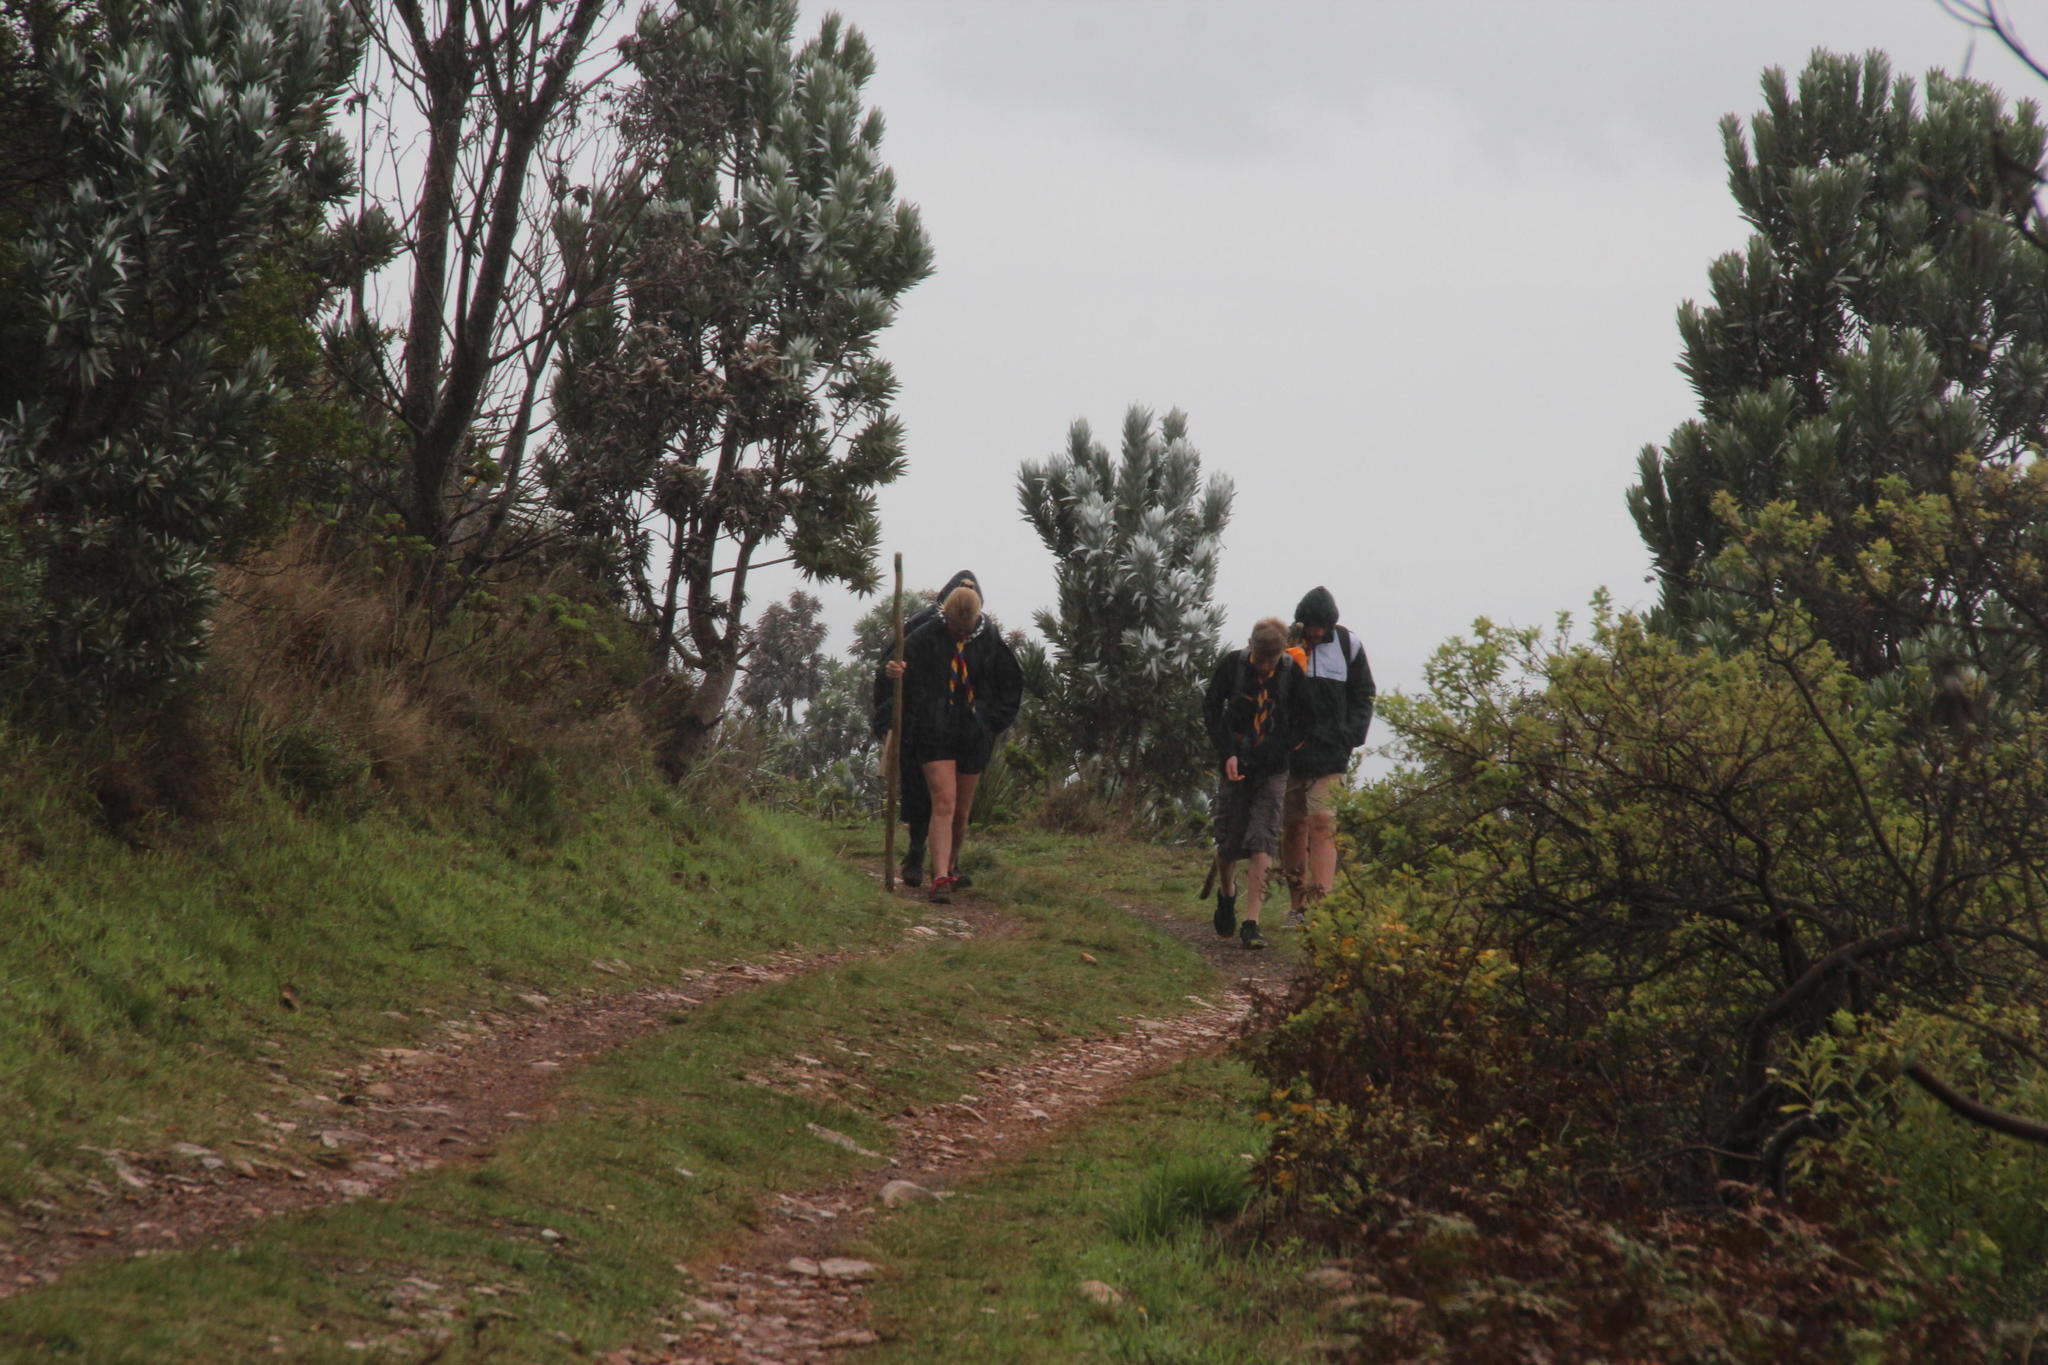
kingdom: Plantae
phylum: Tracheophyta
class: Magnoliopsida
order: Proteales
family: Proteaceae
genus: Leucadendron
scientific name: Leucadendron argenteum
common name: Cape silver tree
